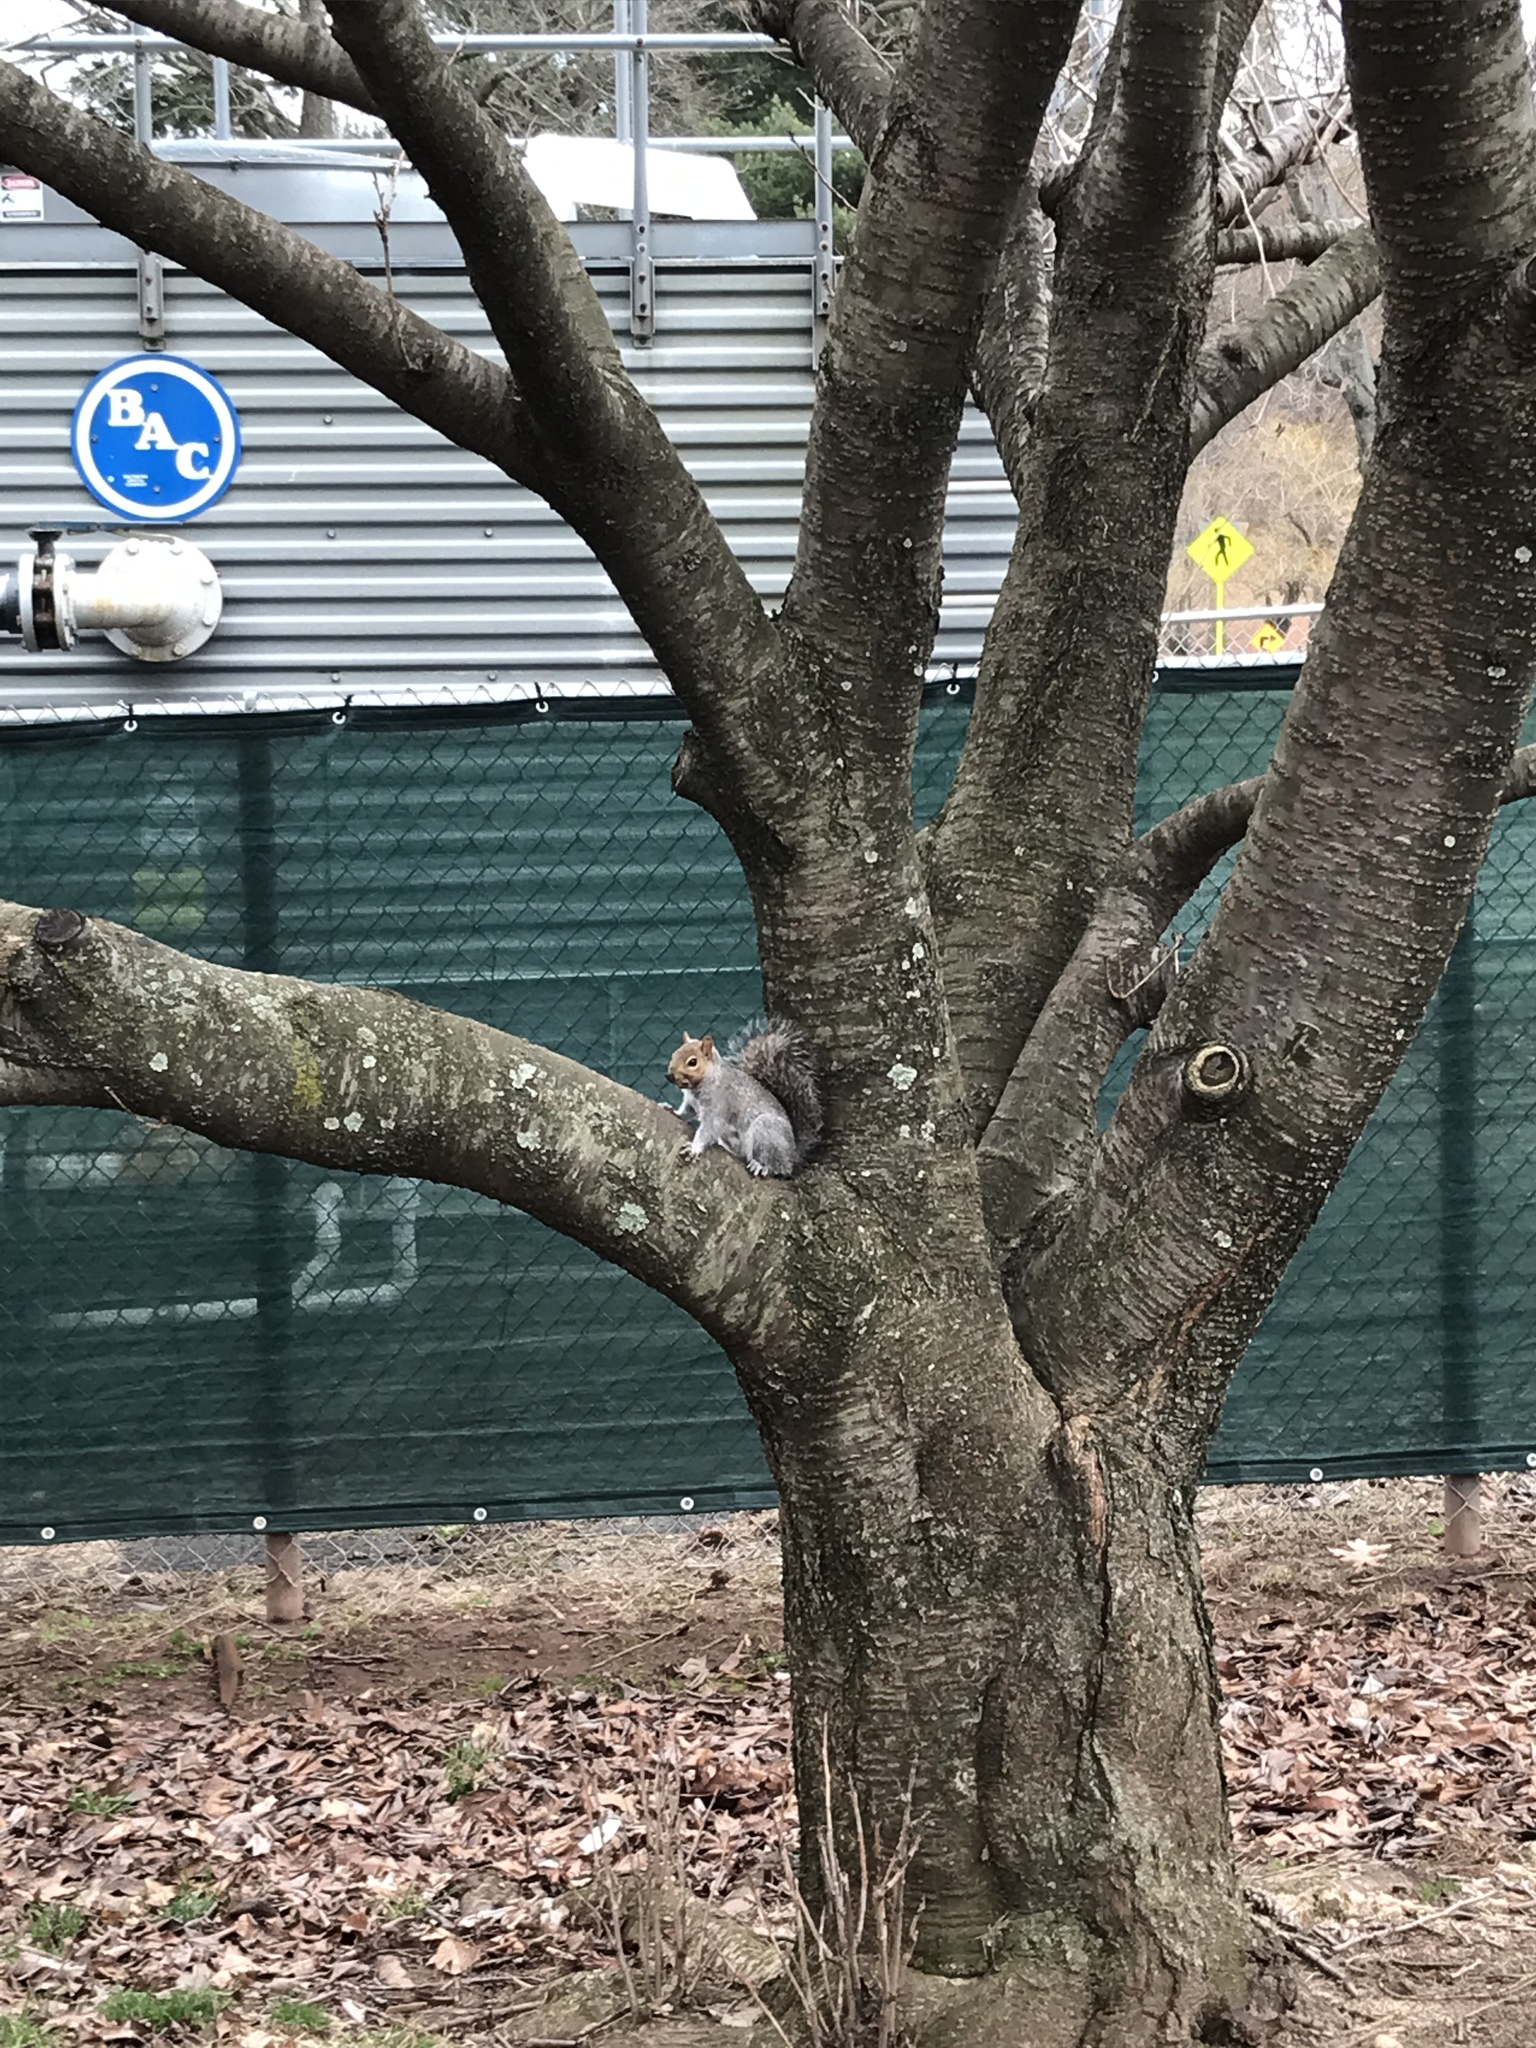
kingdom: Animalia
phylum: Chordata
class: Mammalia
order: Rodentia
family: Sciuridae
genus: Sciurus
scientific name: Sciurus carolinensis
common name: Eastern gray squirrel
